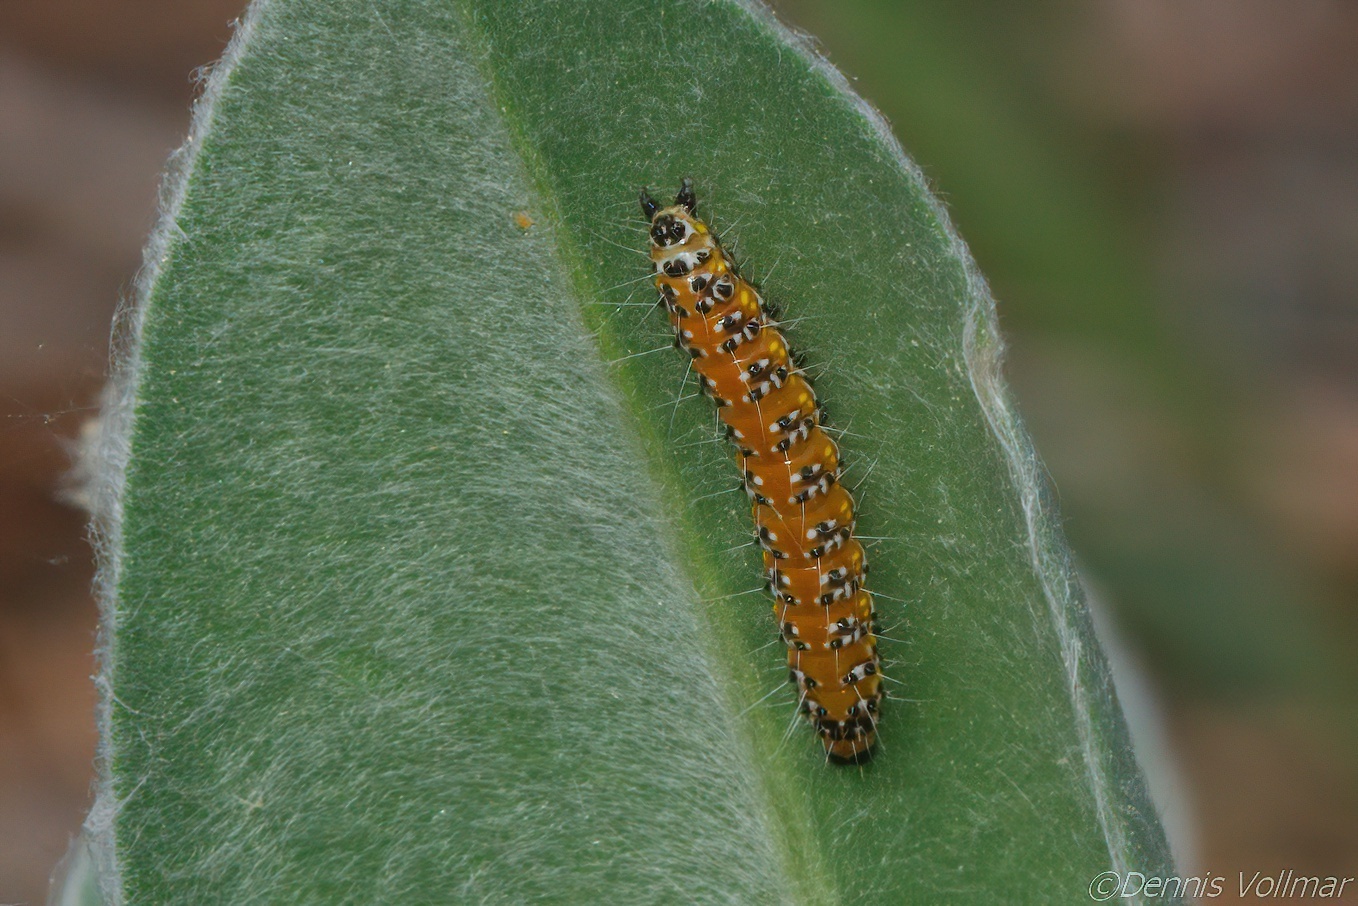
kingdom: Animalia
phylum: Arthropoda
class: Insecta
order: Lepidoptera
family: Crambidae
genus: Uresiphita
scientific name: Uresiphita reversalis
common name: Genista broom moth
